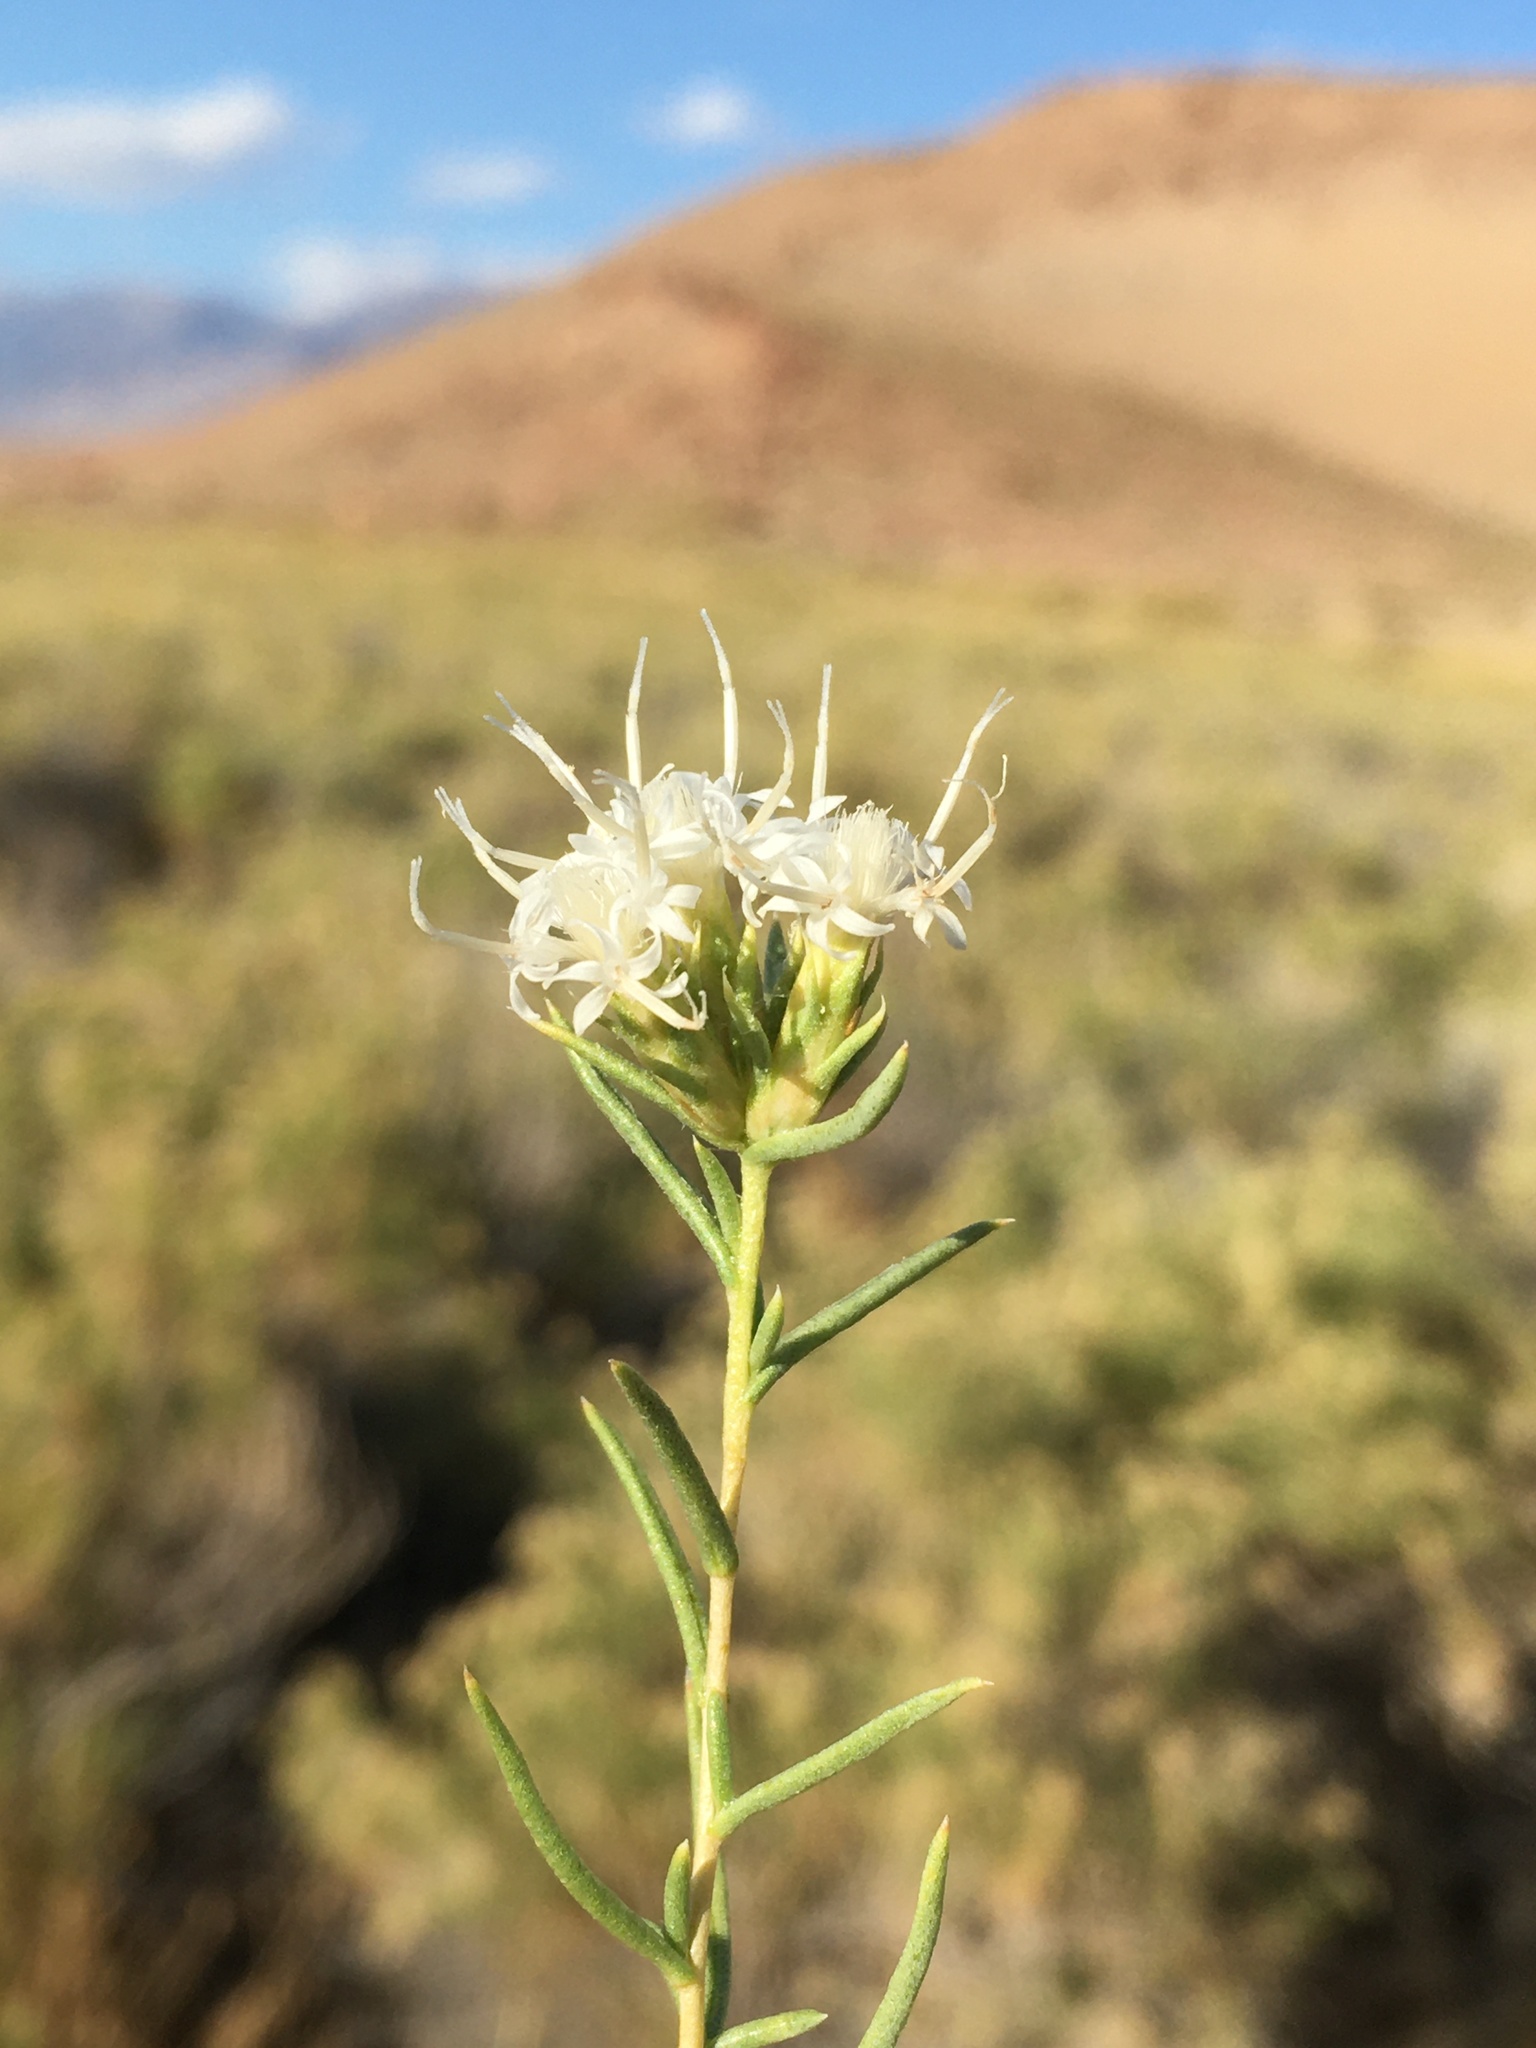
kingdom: Plantae
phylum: Tracheophyta
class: Magnoliopsida
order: Asterales
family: Asteraceae
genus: Ericameria
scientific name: Ericameria albida
